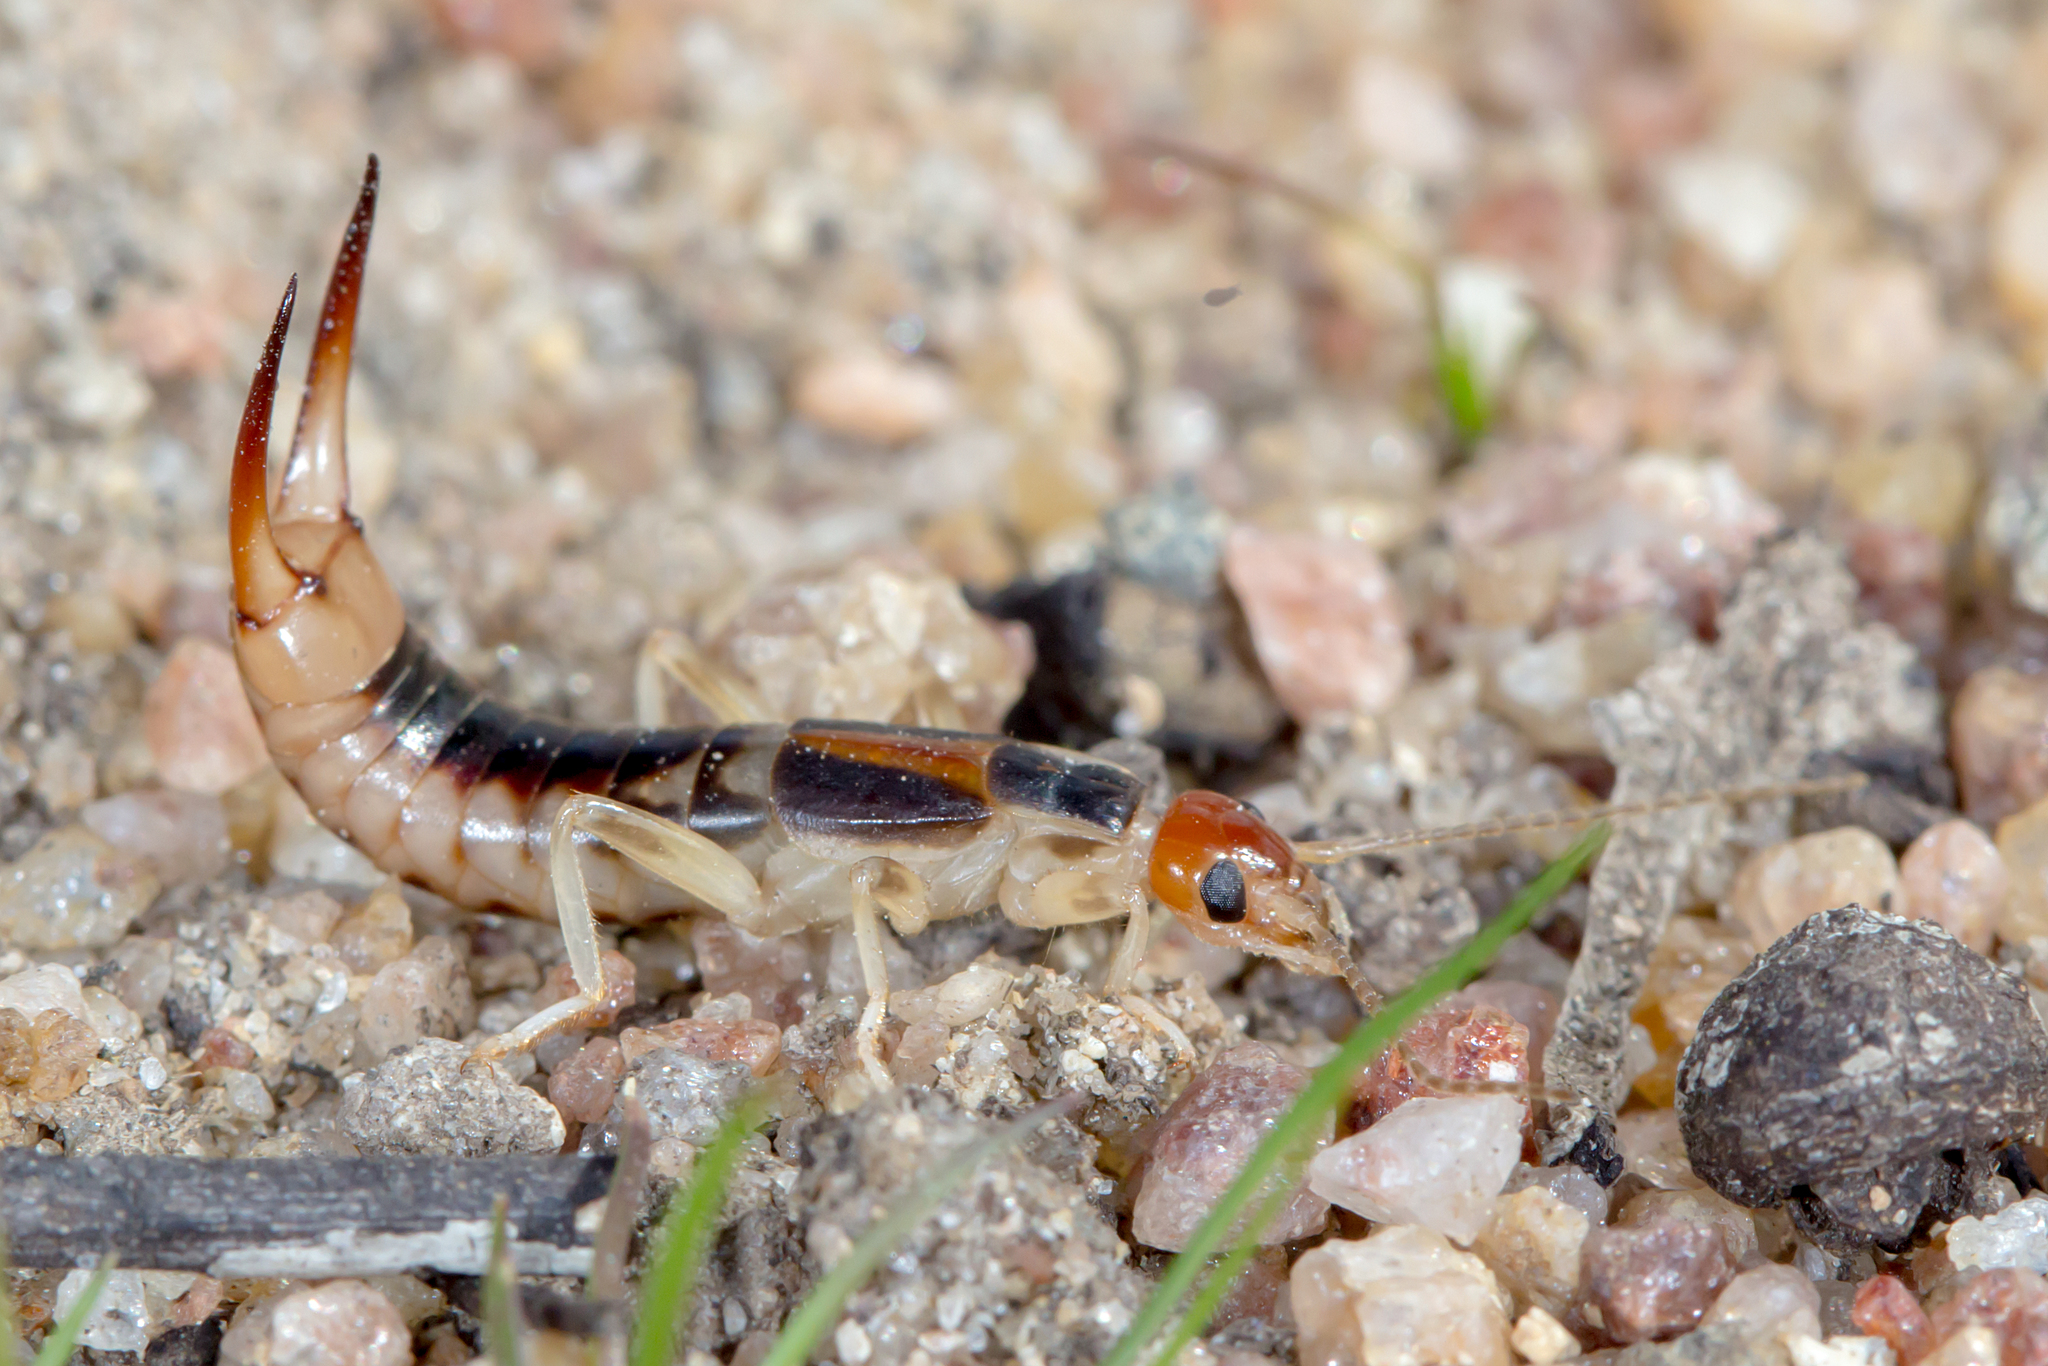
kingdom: Animalia
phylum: Arthropoda
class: Insecta
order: Dermaptera
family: Labiduridae
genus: Labidura
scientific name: Labidura riparia
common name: Striped earwig
